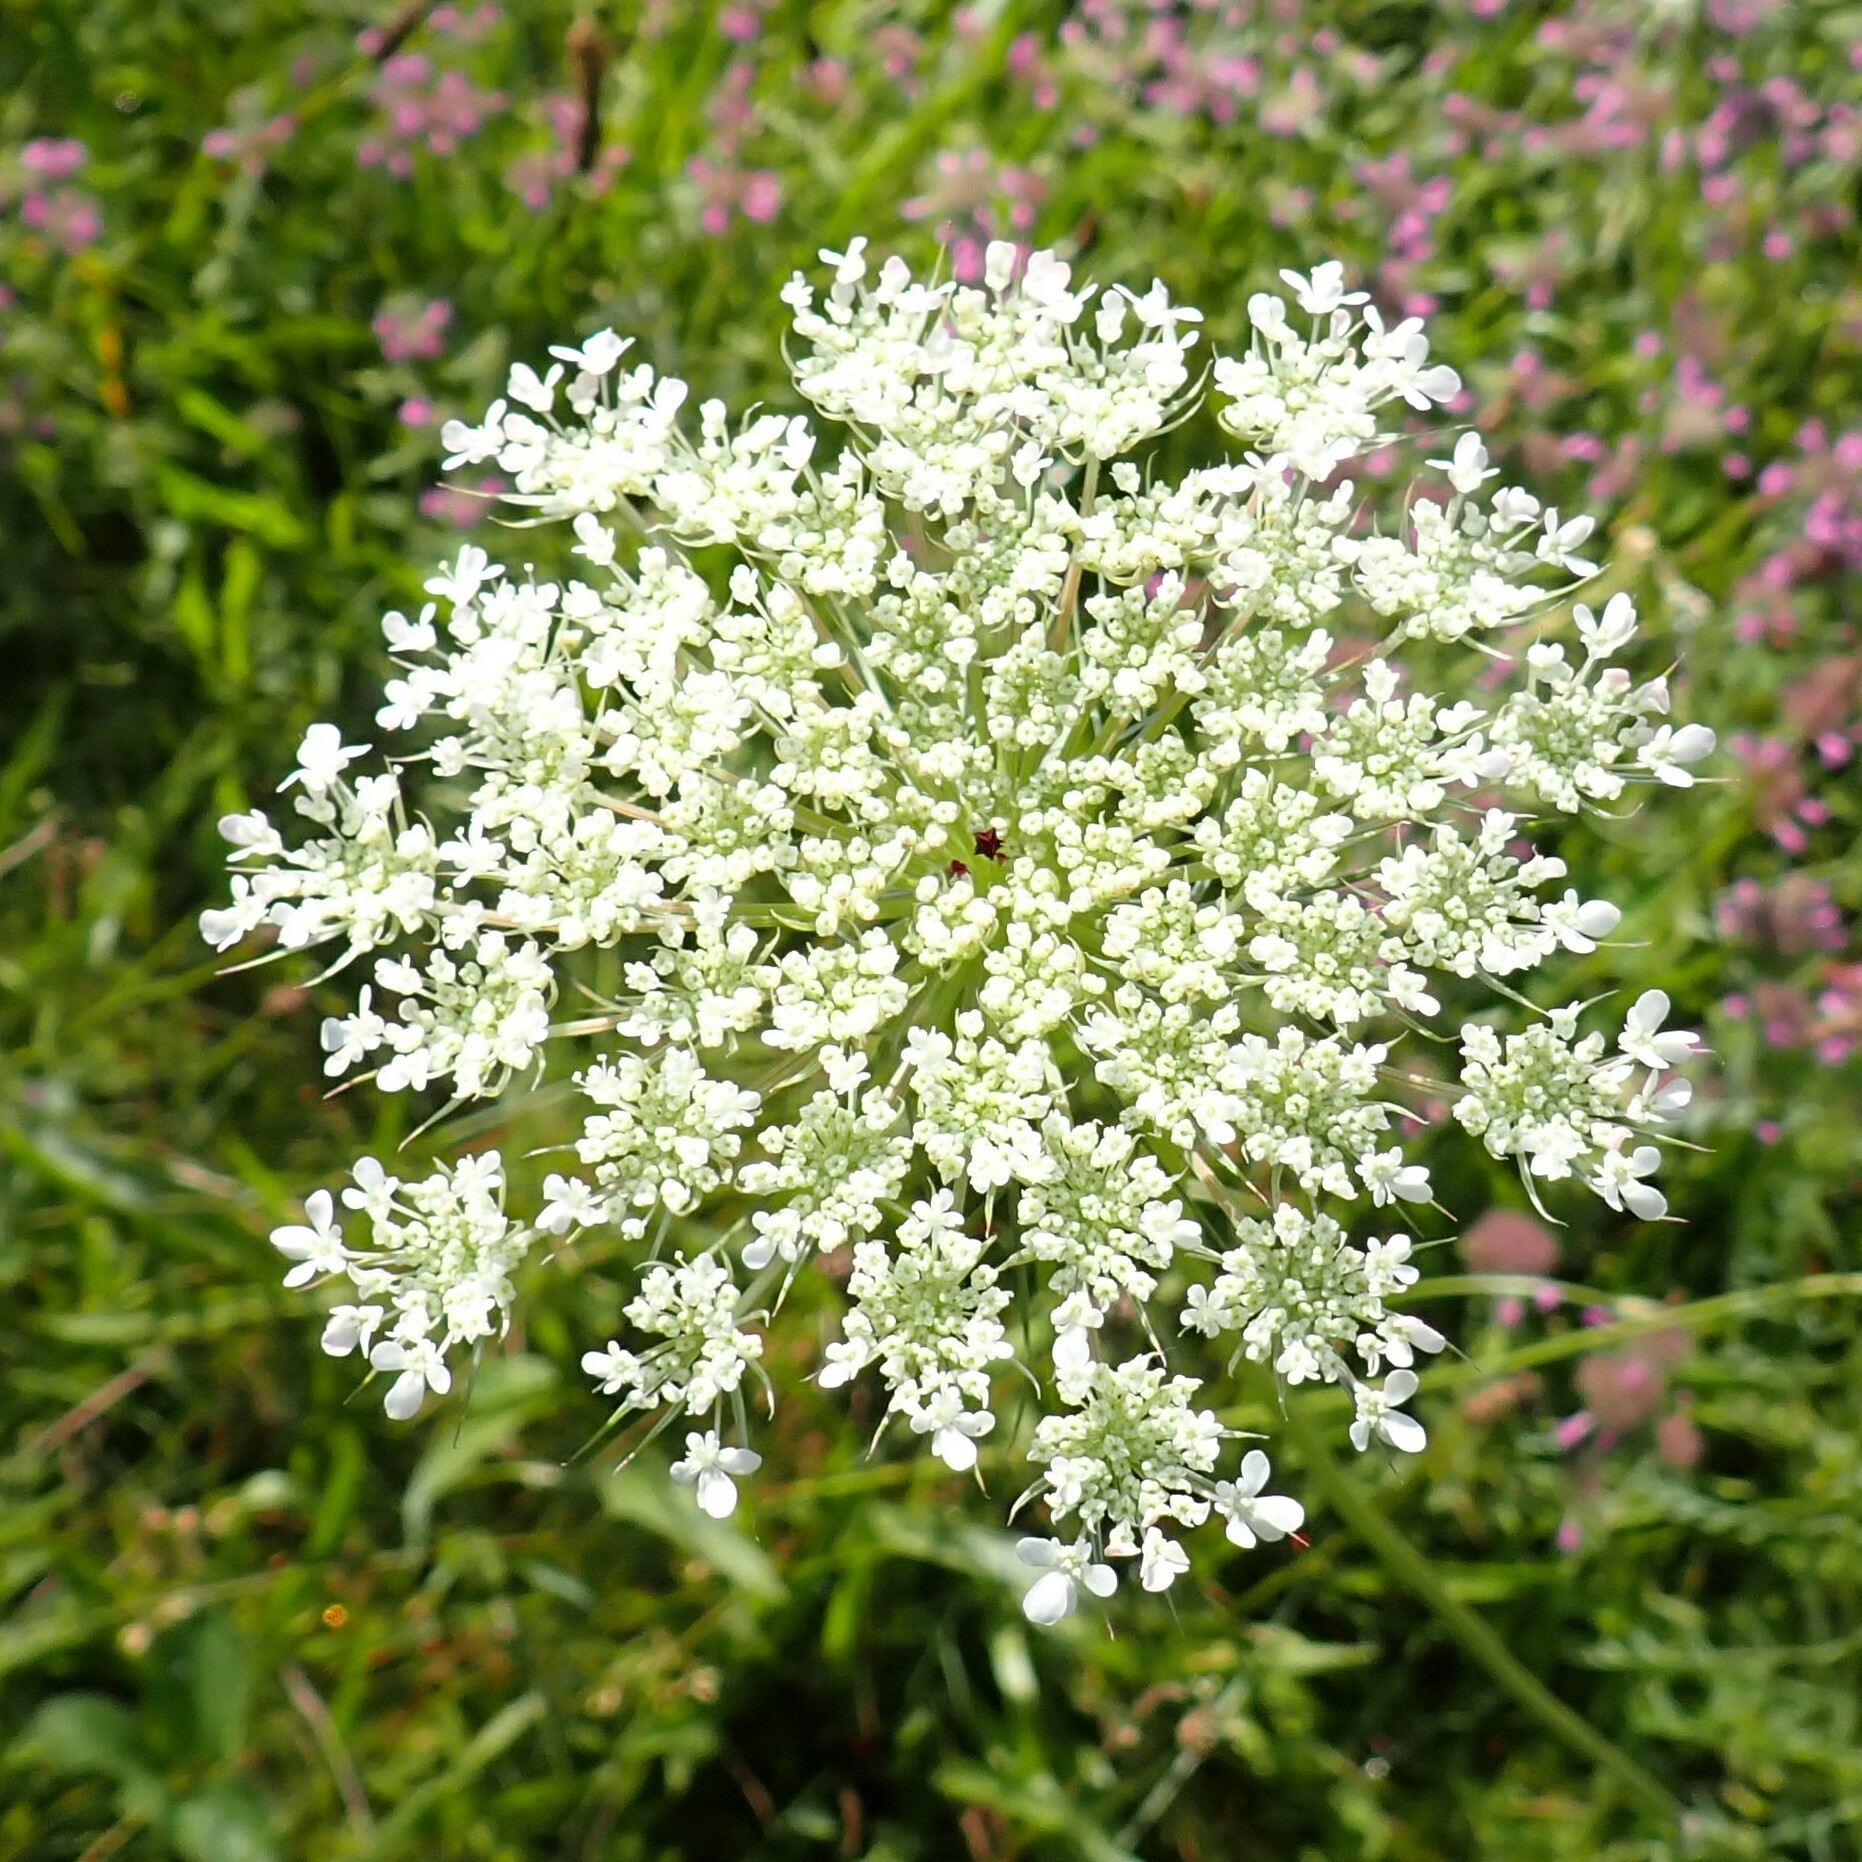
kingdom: Plantae
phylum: Tracheophyta
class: Magnoliopsida
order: Apiales
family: Apiaceae
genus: Daucus
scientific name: Daucus carota
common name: Wild carrot
